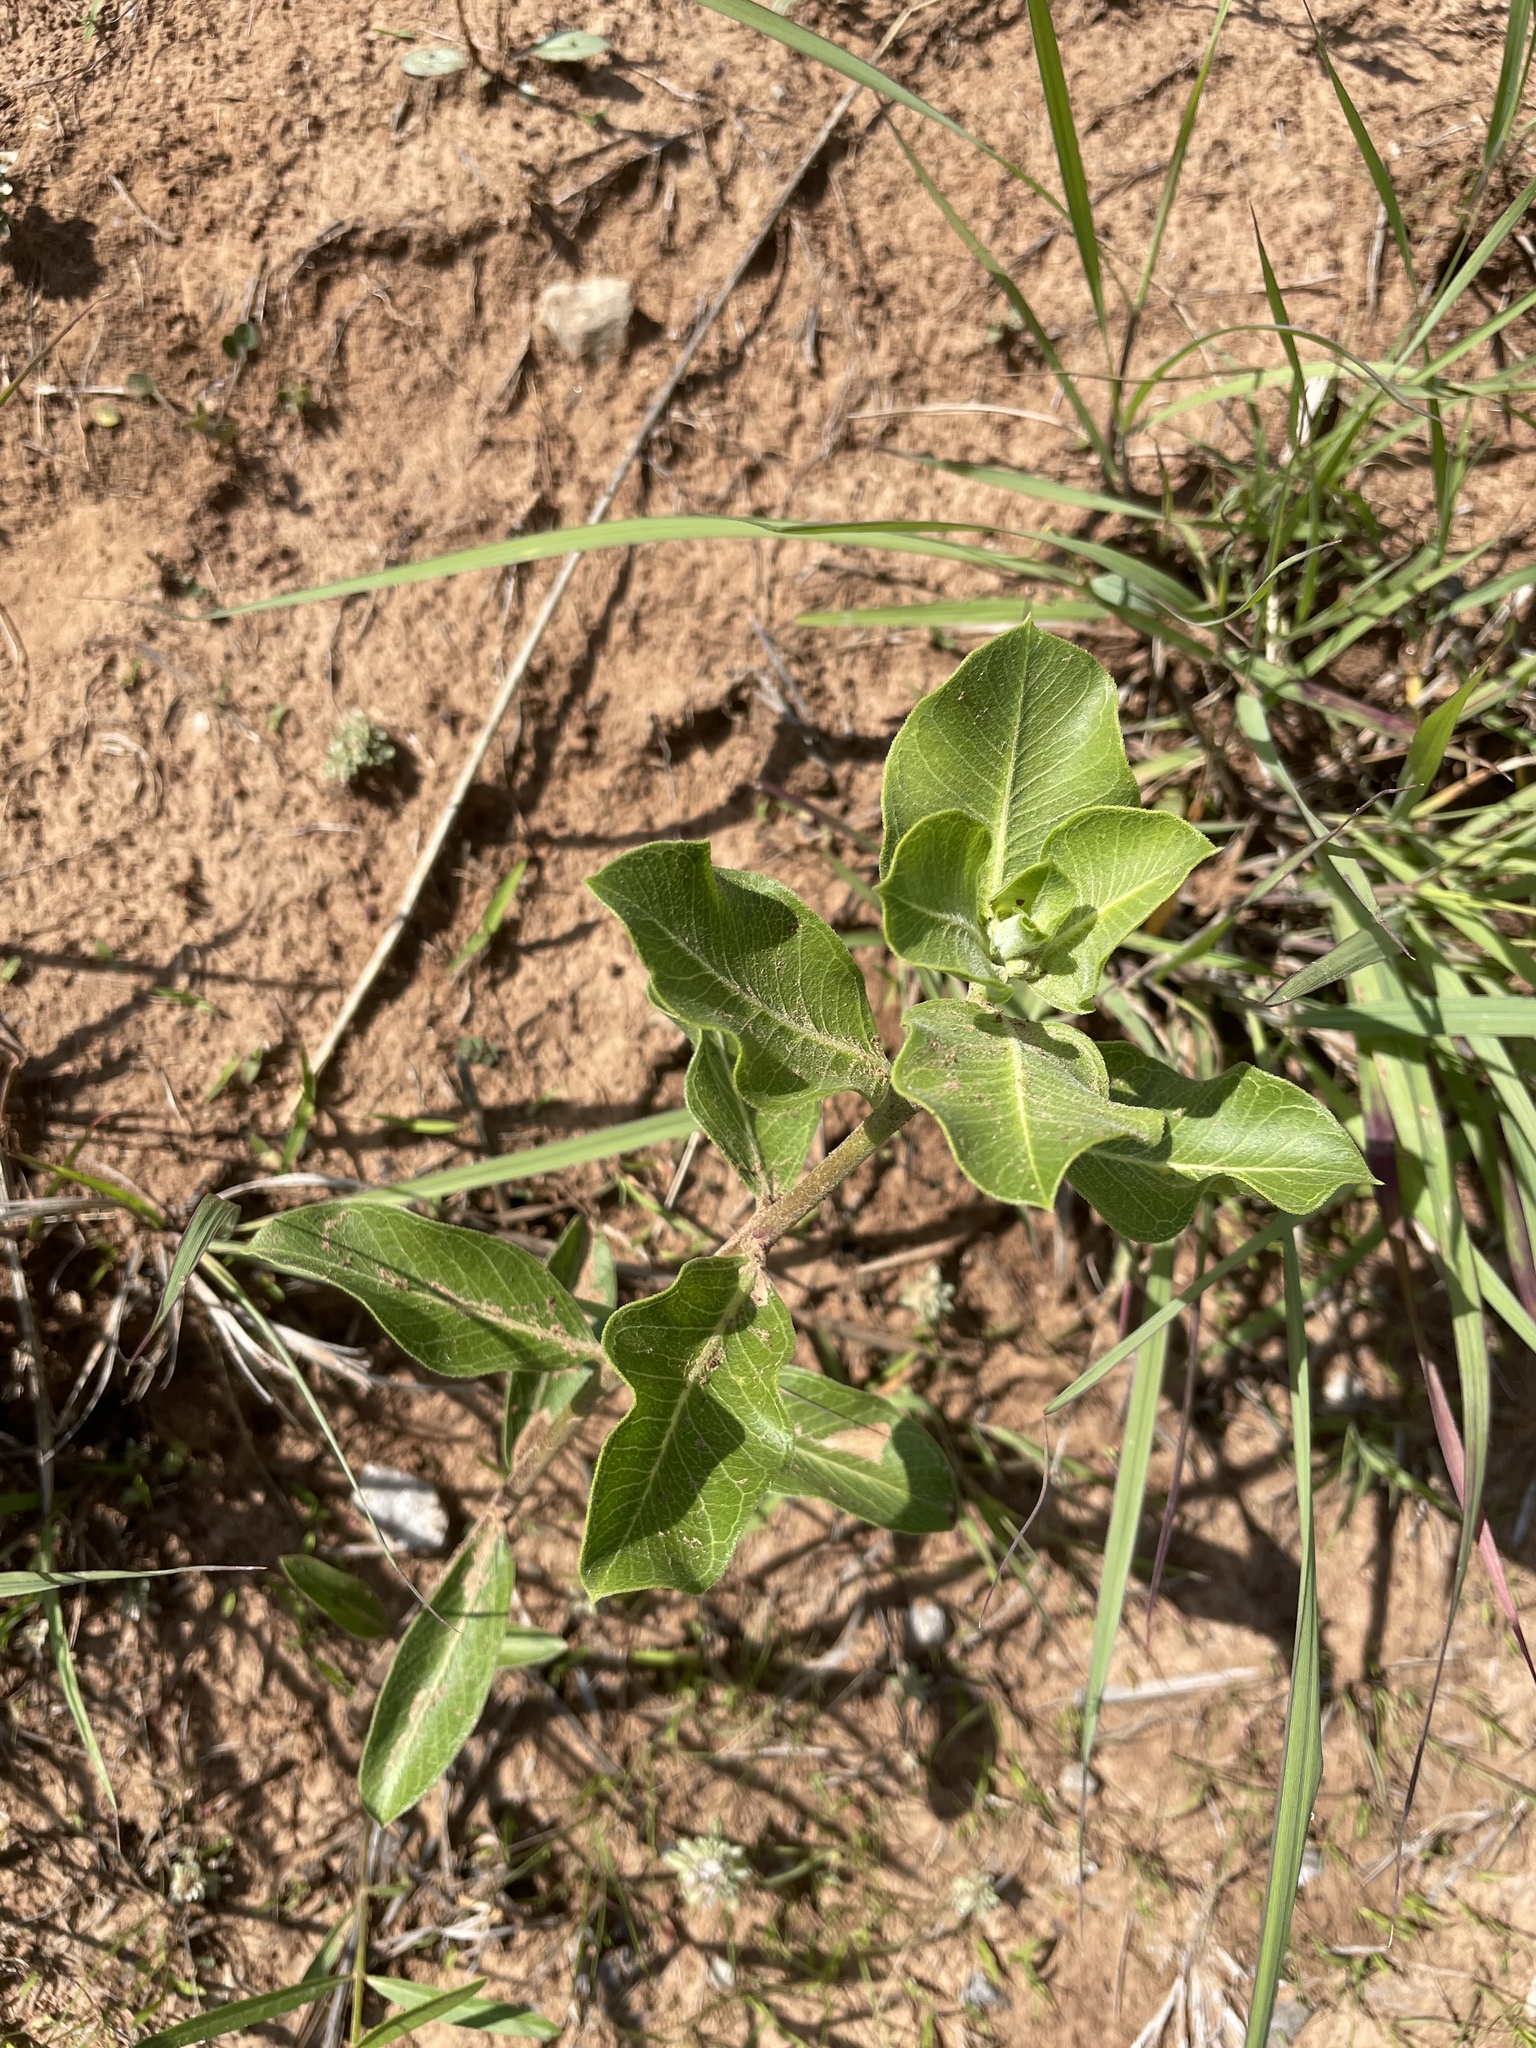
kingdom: Plantae
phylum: Tracheophyta
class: Magnoliopsida
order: Gentianales
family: Apocynaceae
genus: Asclepias
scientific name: Asclepias viridiflora
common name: Green comet milkweed
